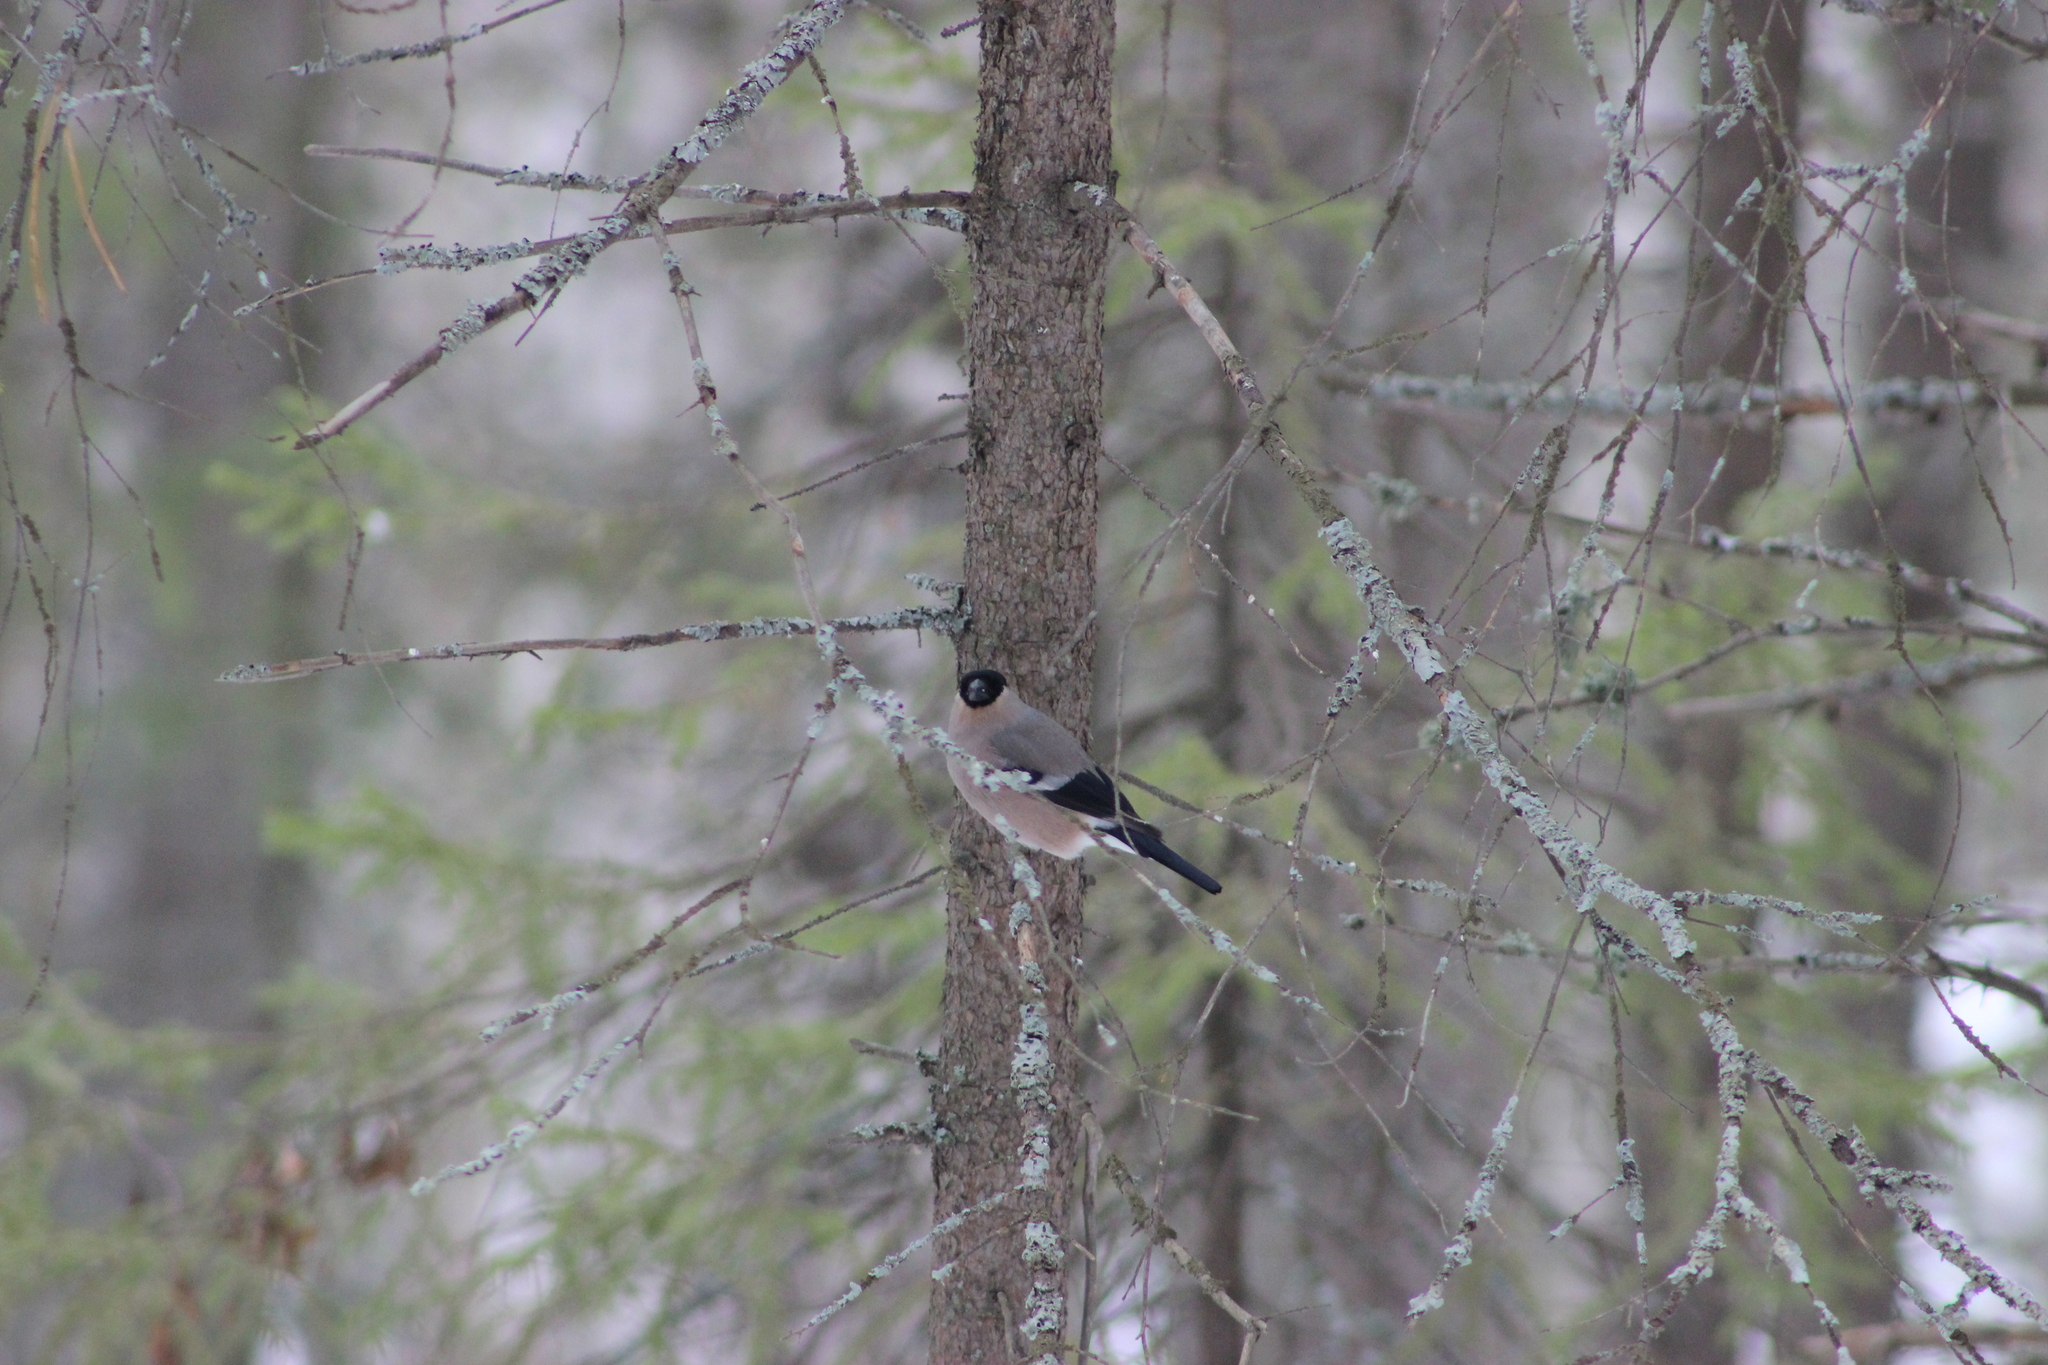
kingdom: Animalia
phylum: Chordata
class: Aves
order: Passeriformes
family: Fringillidae
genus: Pyrrhula
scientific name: Pyrrhula pyrrhula
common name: Eurasian bullfinch
